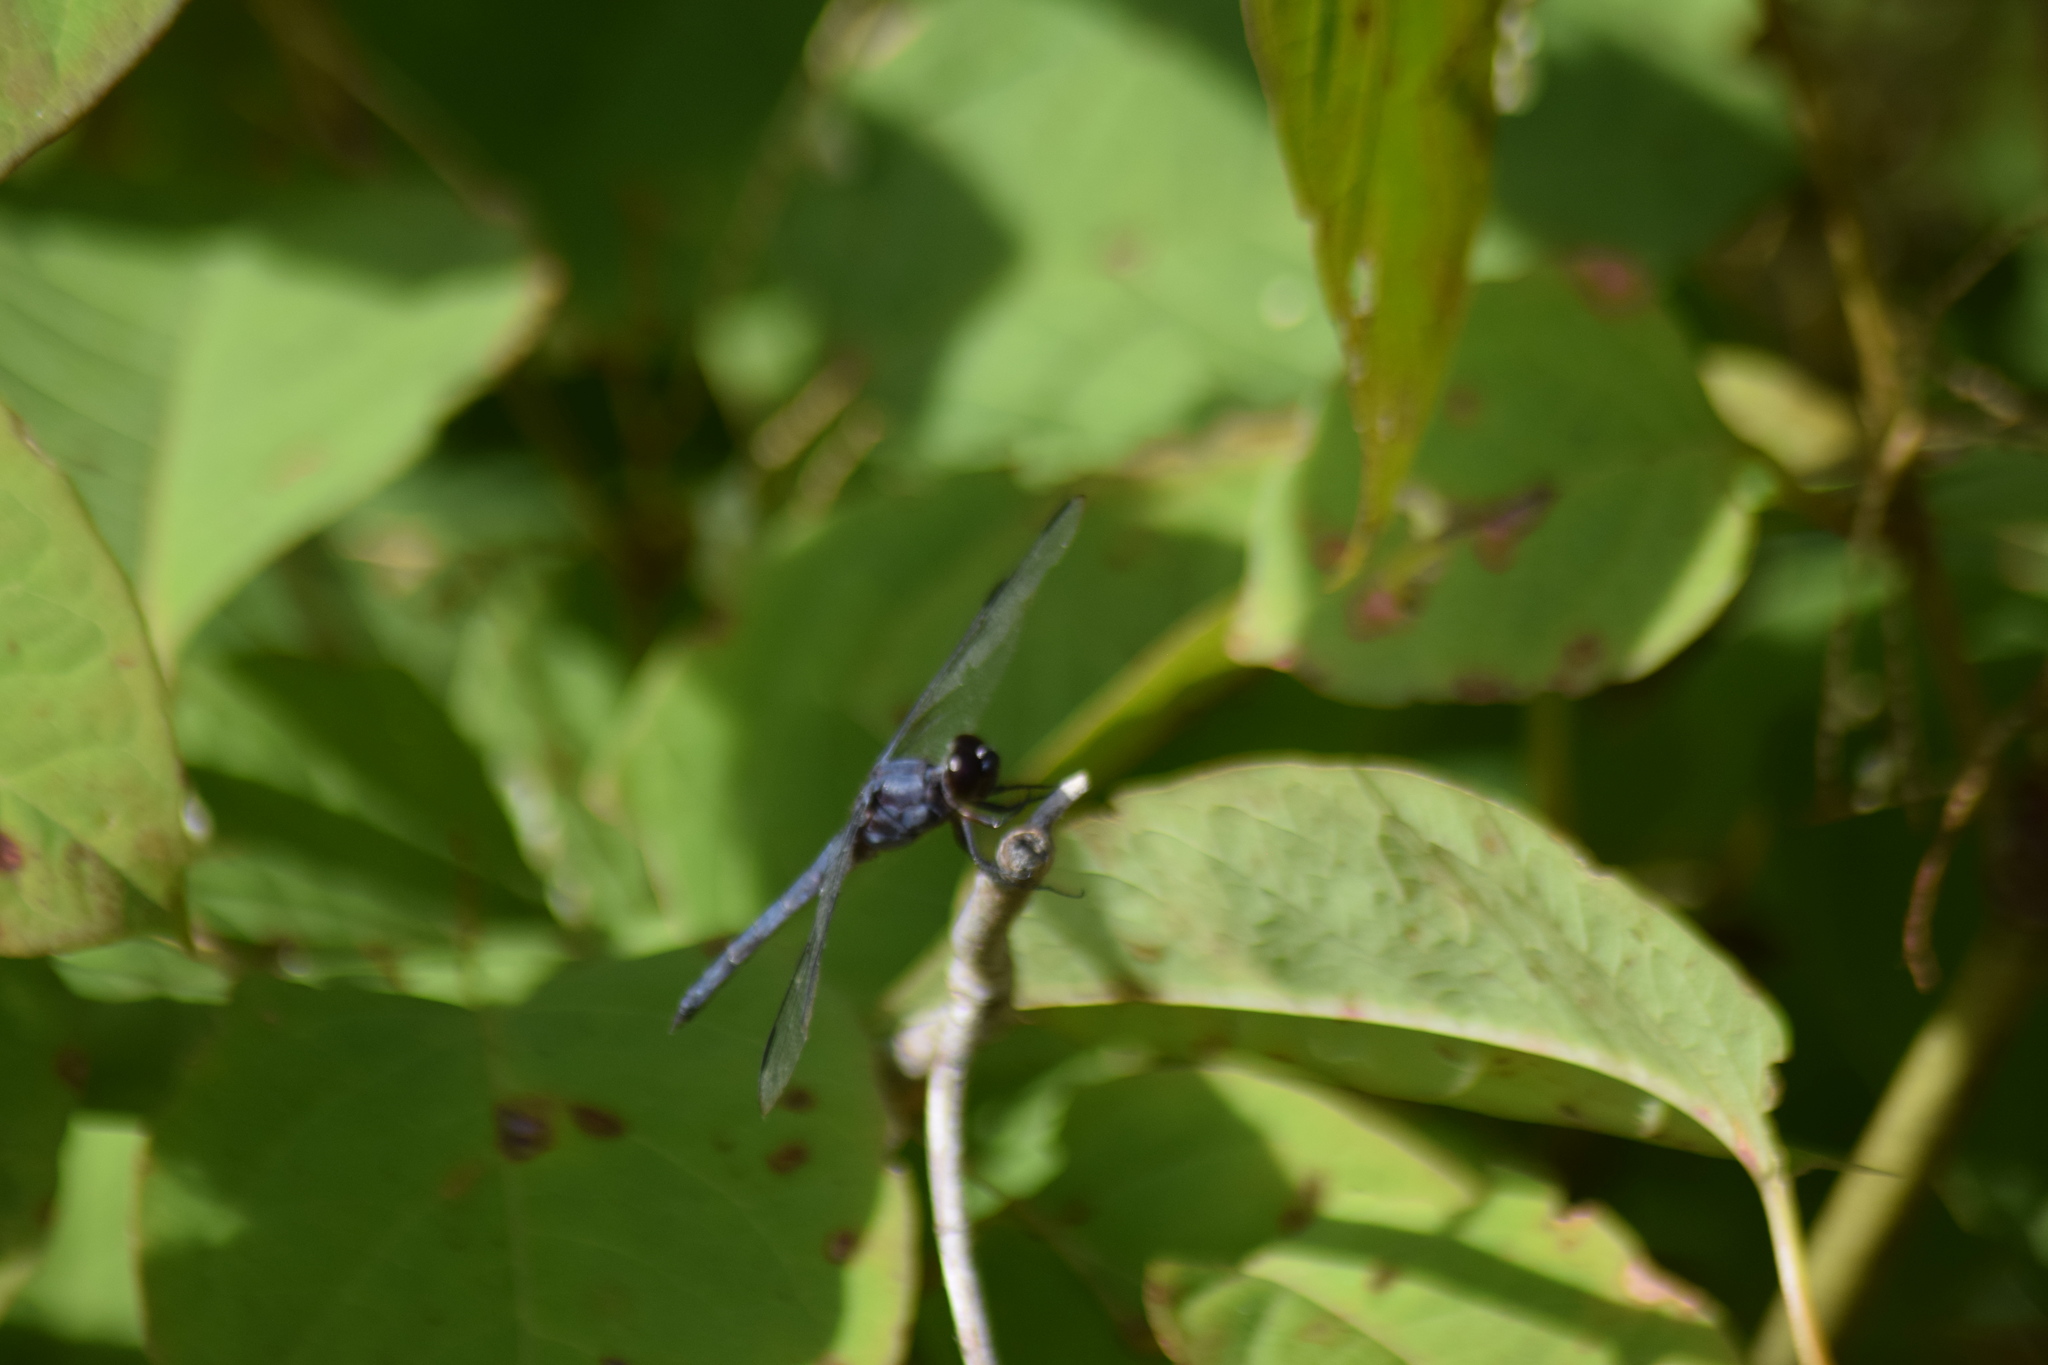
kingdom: Animalia
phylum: Arthropoda
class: Insecta
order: Odonata
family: Libellulidae
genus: Libellula
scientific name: Libellula incesta
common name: Slaty skimmer
